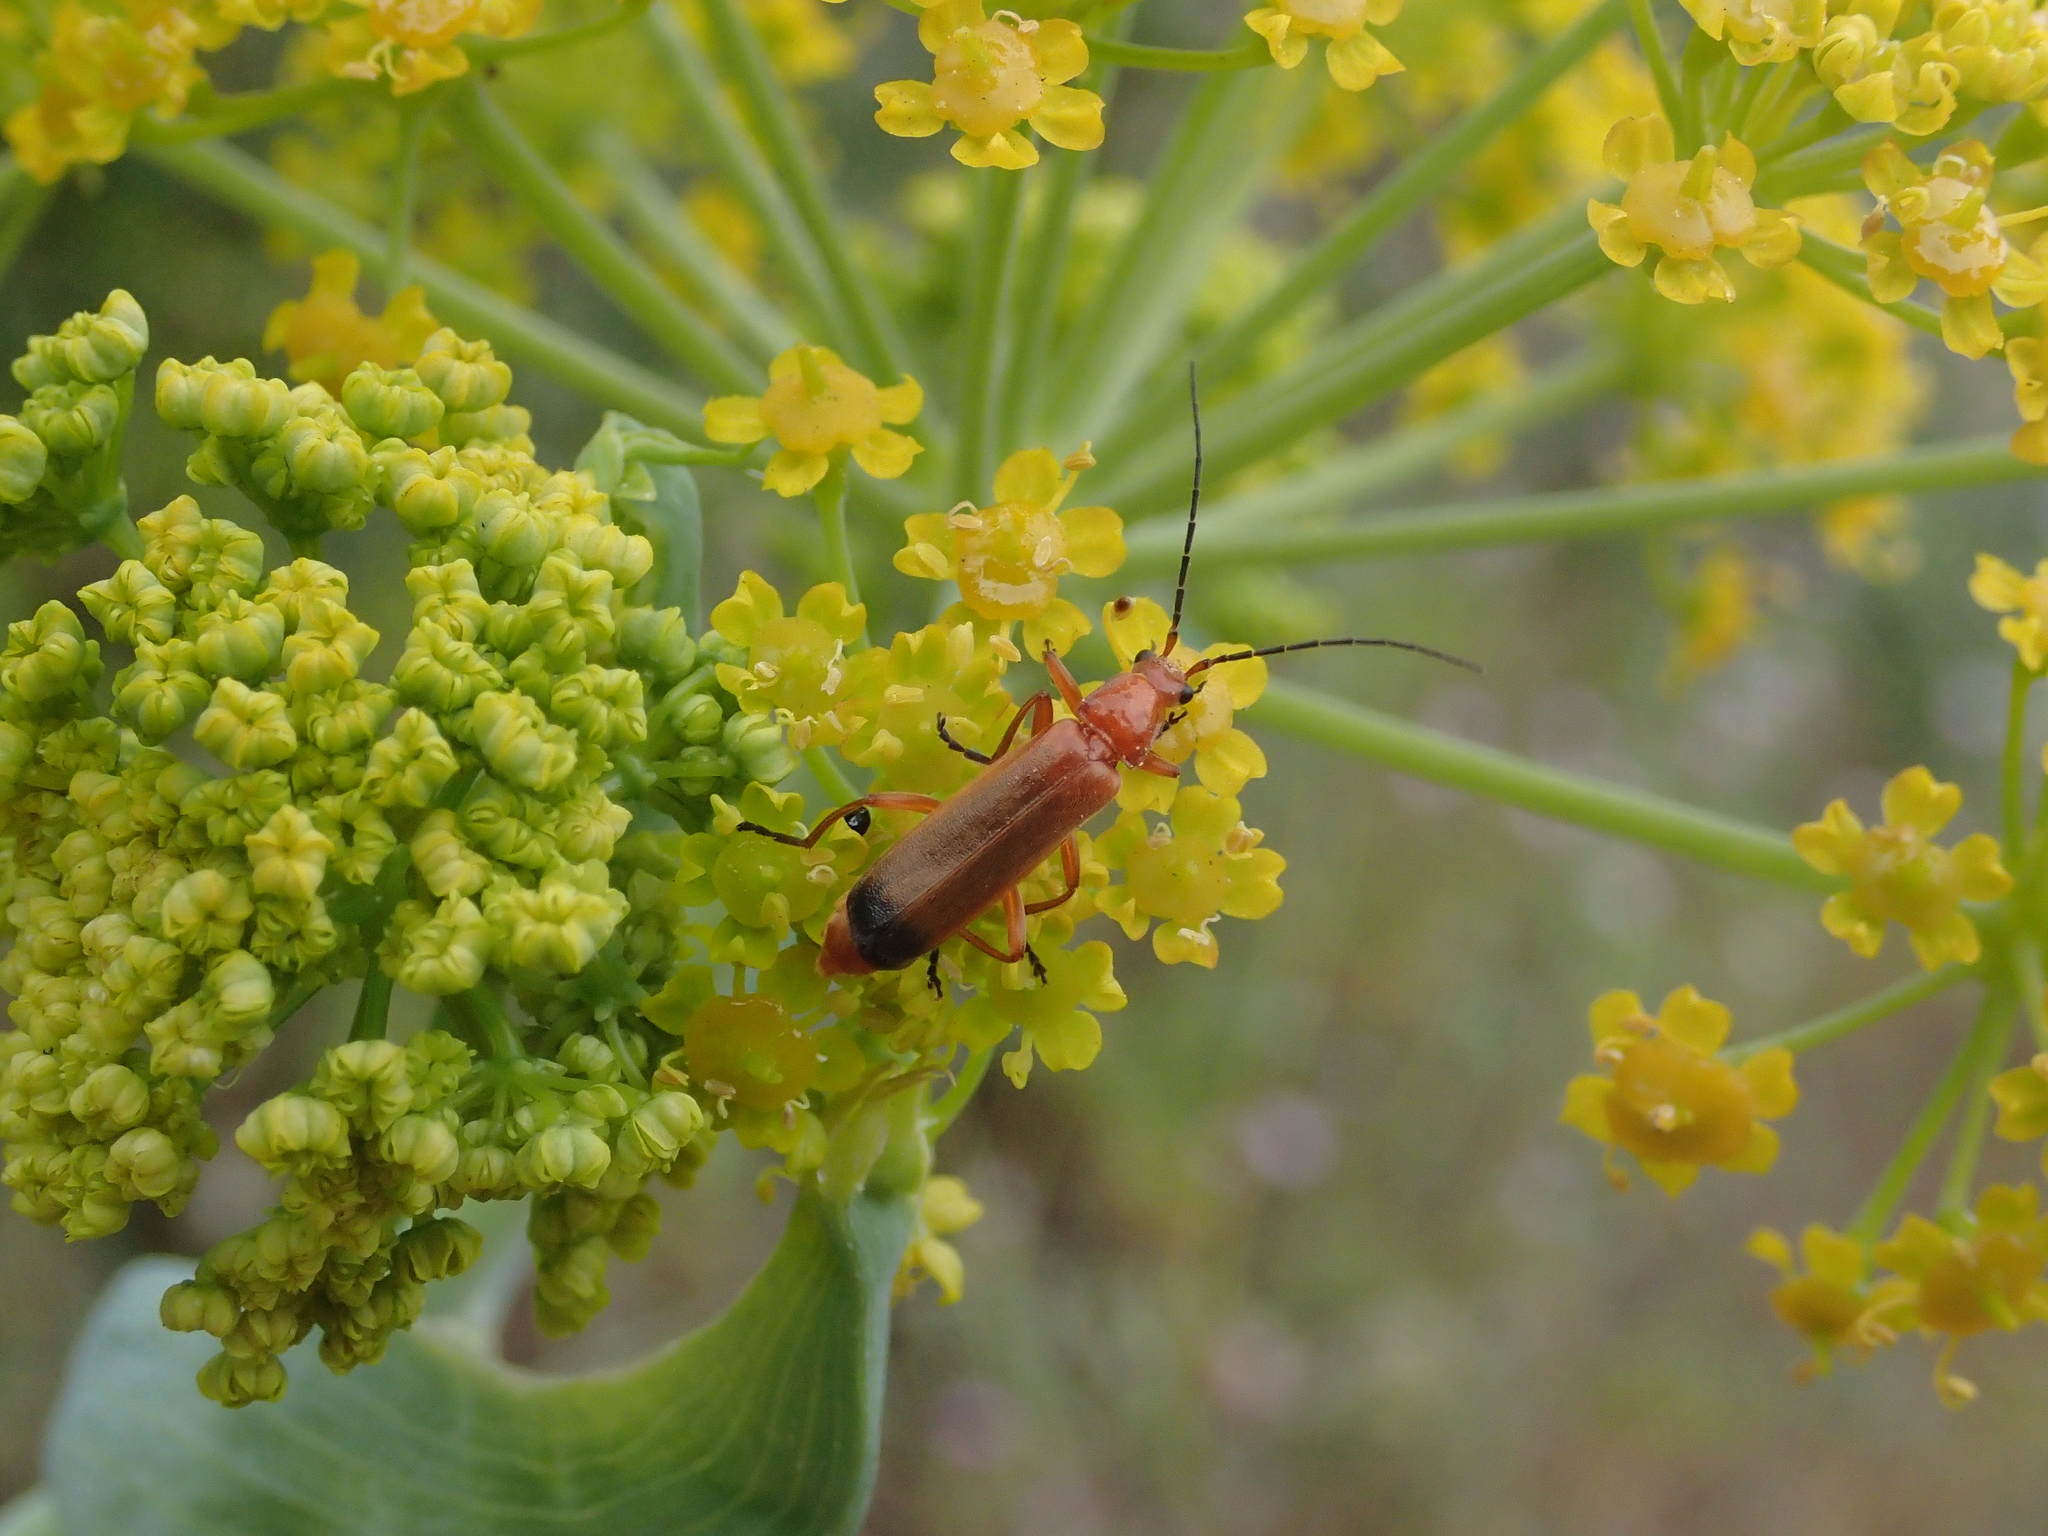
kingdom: Animalia
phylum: Arthropoda
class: Insecta
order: Coleoptera
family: Cantharidae
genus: Rhagonycha
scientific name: Rhagonycha fulva
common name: Common red soldier beetle
